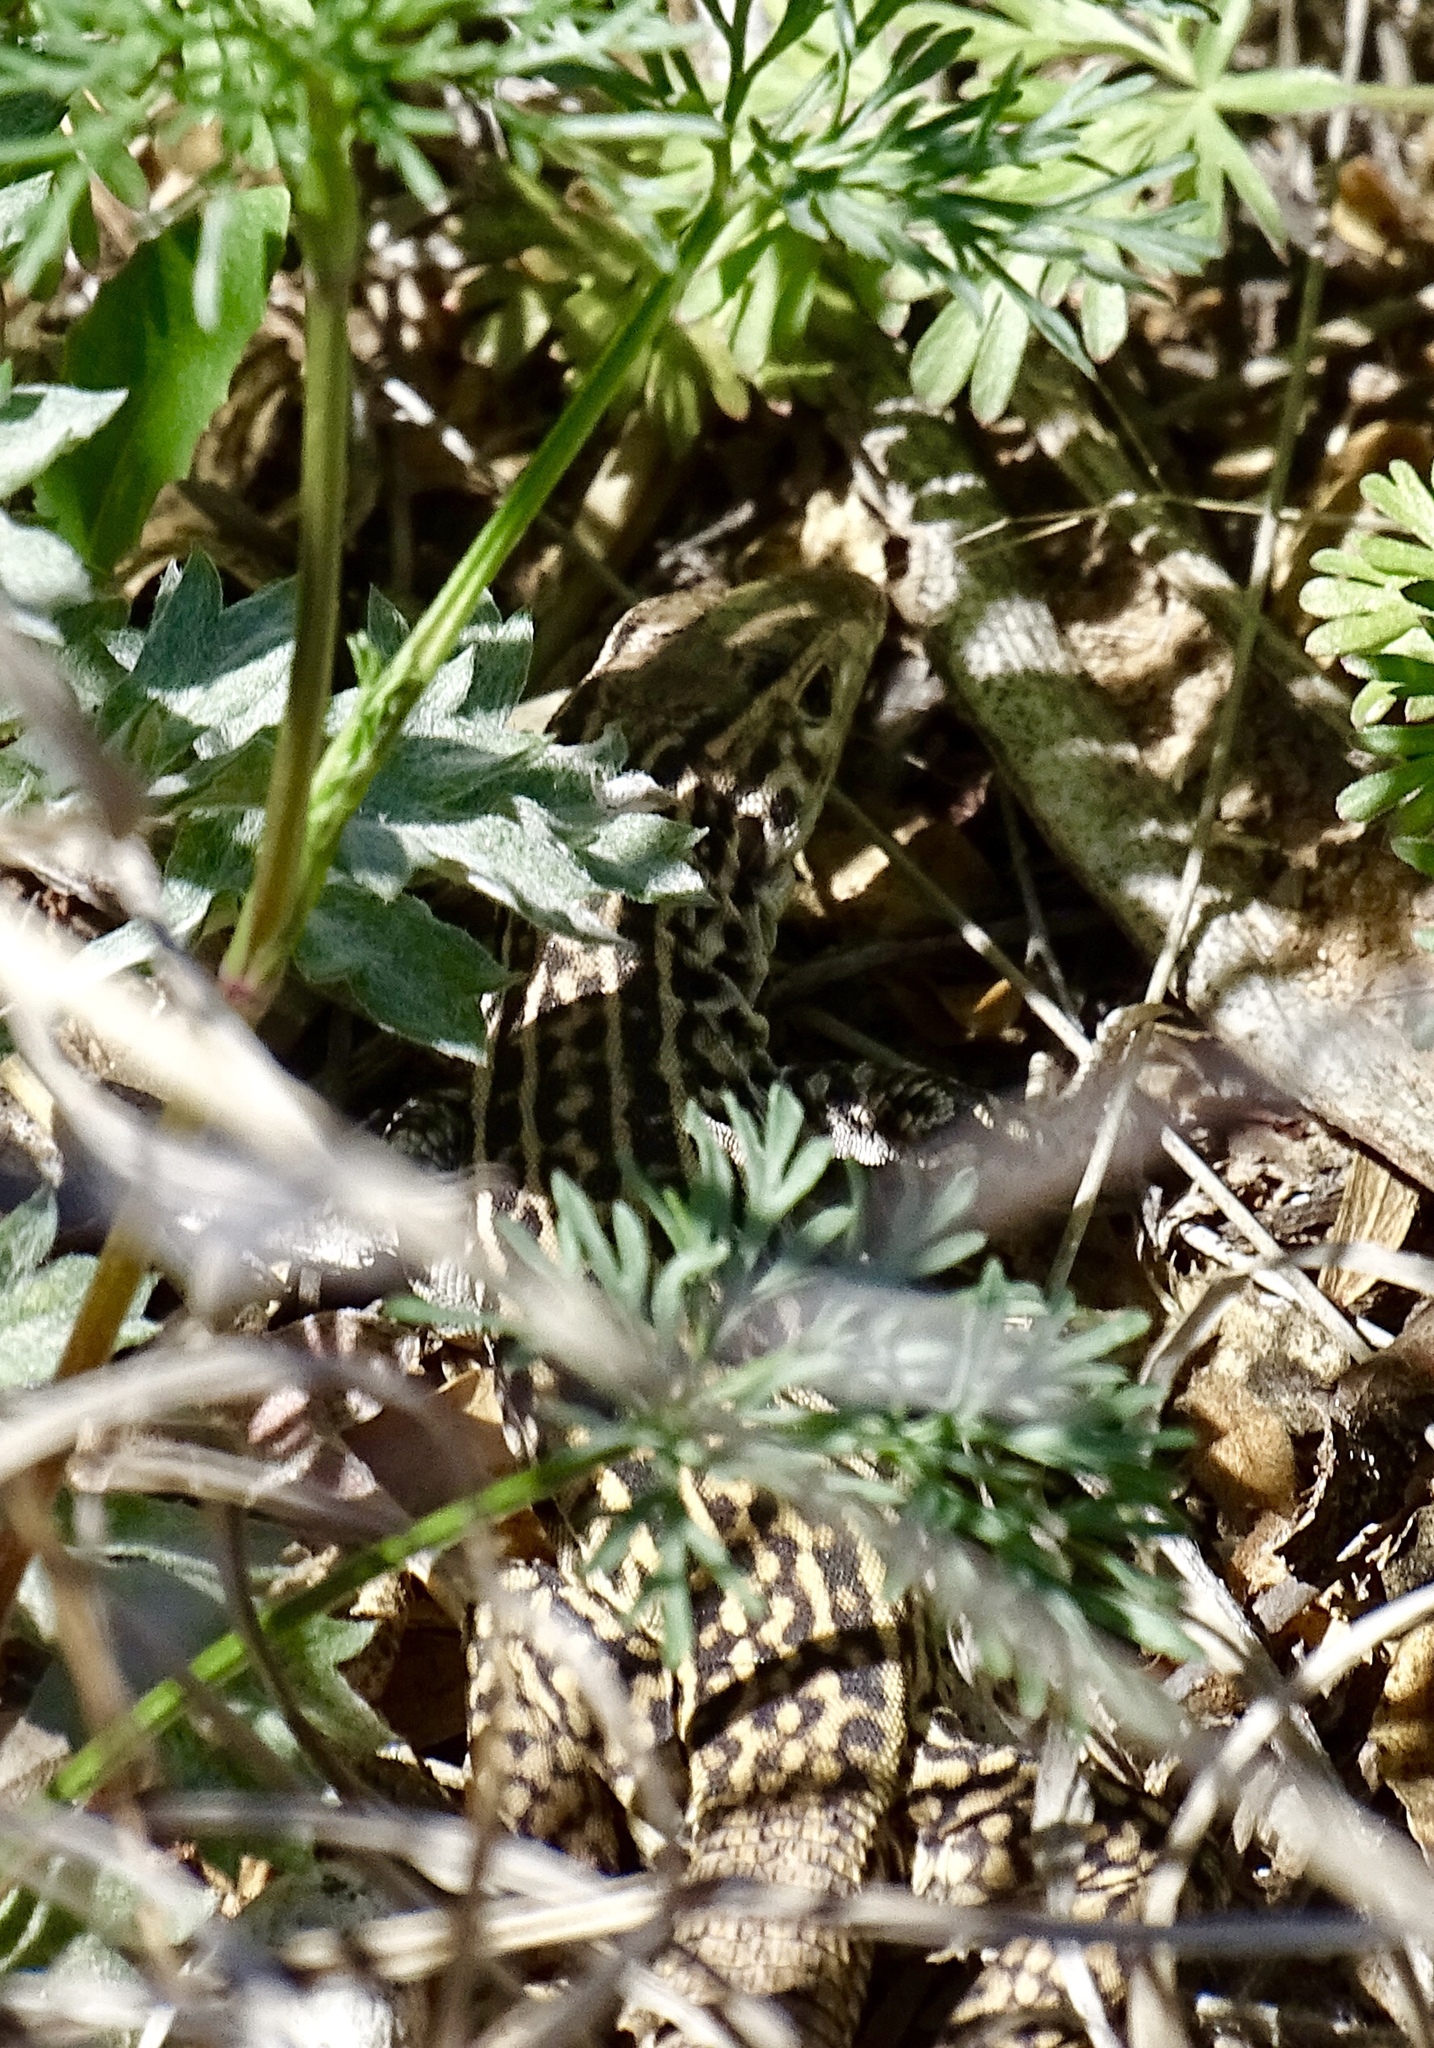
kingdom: Animalia
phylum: Chordata
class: Squamata
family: Teiidae
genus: Aspidoscelis
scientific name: Aspidoscelis tesselatus
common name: Common checkered whiptail [tesselata]
